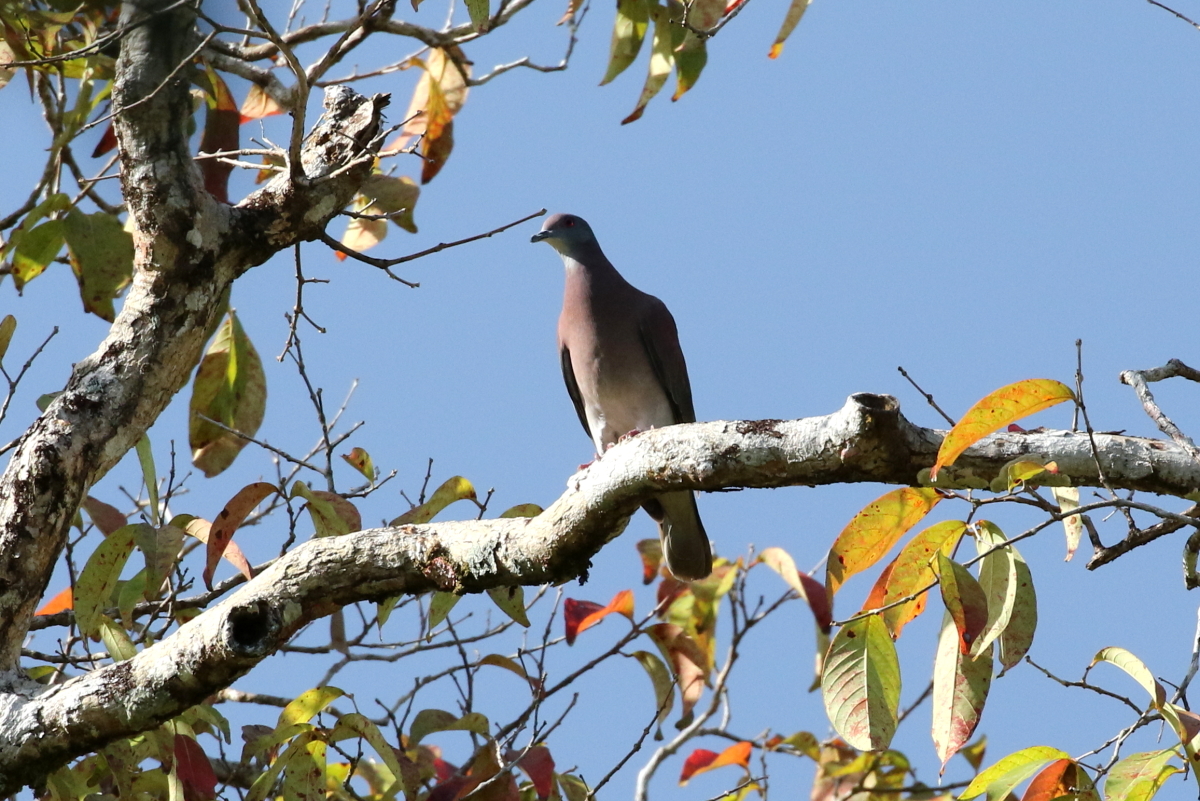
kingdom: Animalia
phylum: Chordata
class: Aves
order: Columbiformes
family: Columbidae
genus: Patagioenas
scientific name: Patagioenas cayennensis
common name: Pale-vented pigeon
